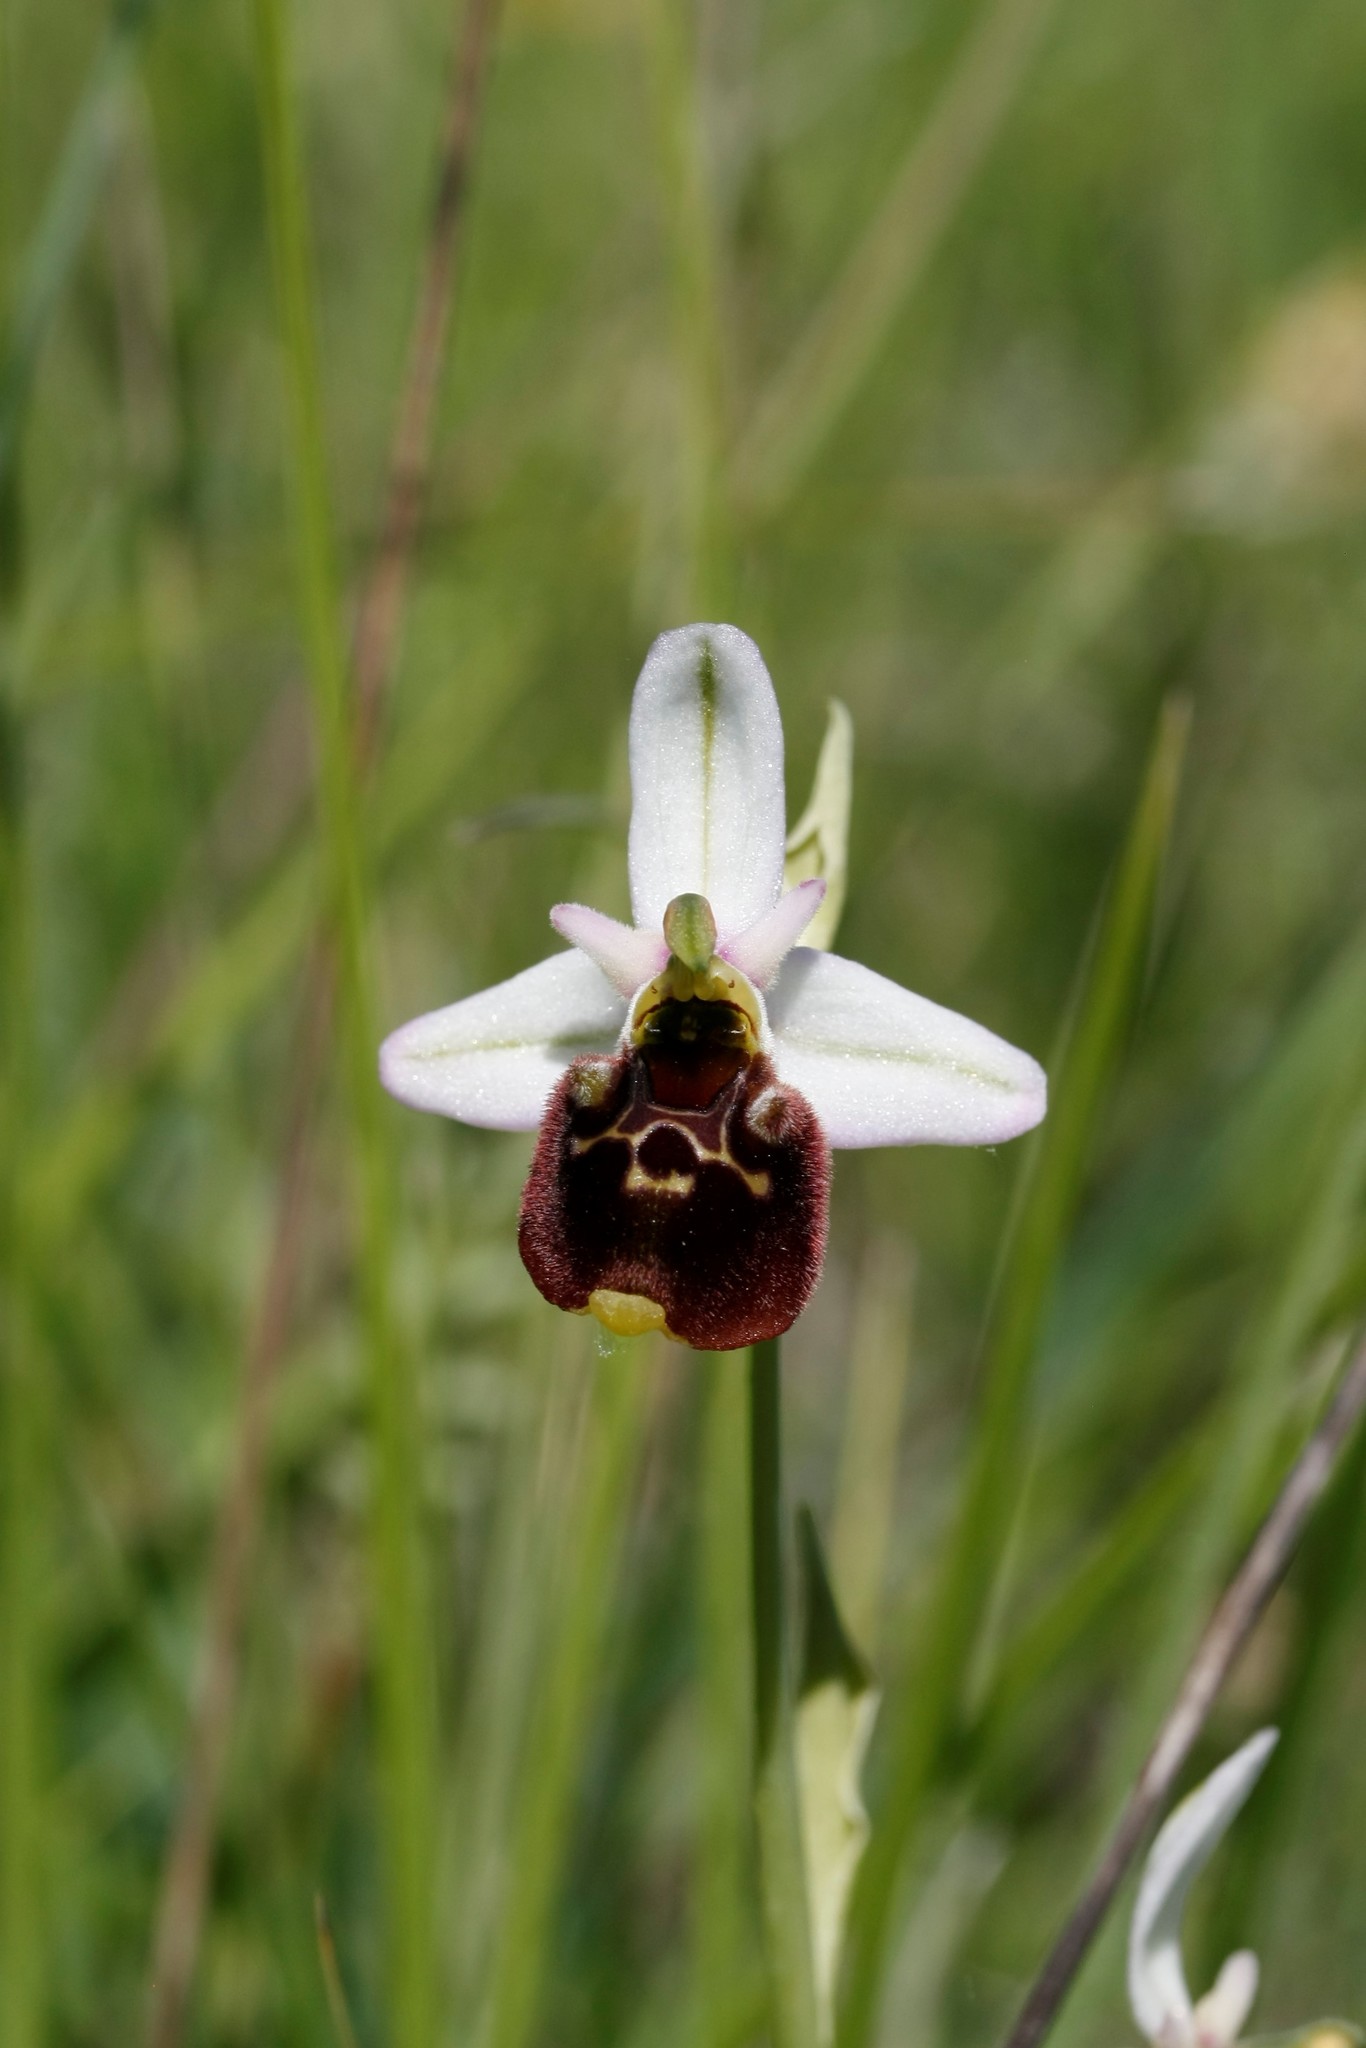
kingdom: Plantae
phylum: Tracheophyta
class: Liliopsida
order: Asparagales
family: Orchidaceae
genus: Ophrys
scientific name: Ophrys holosericea
